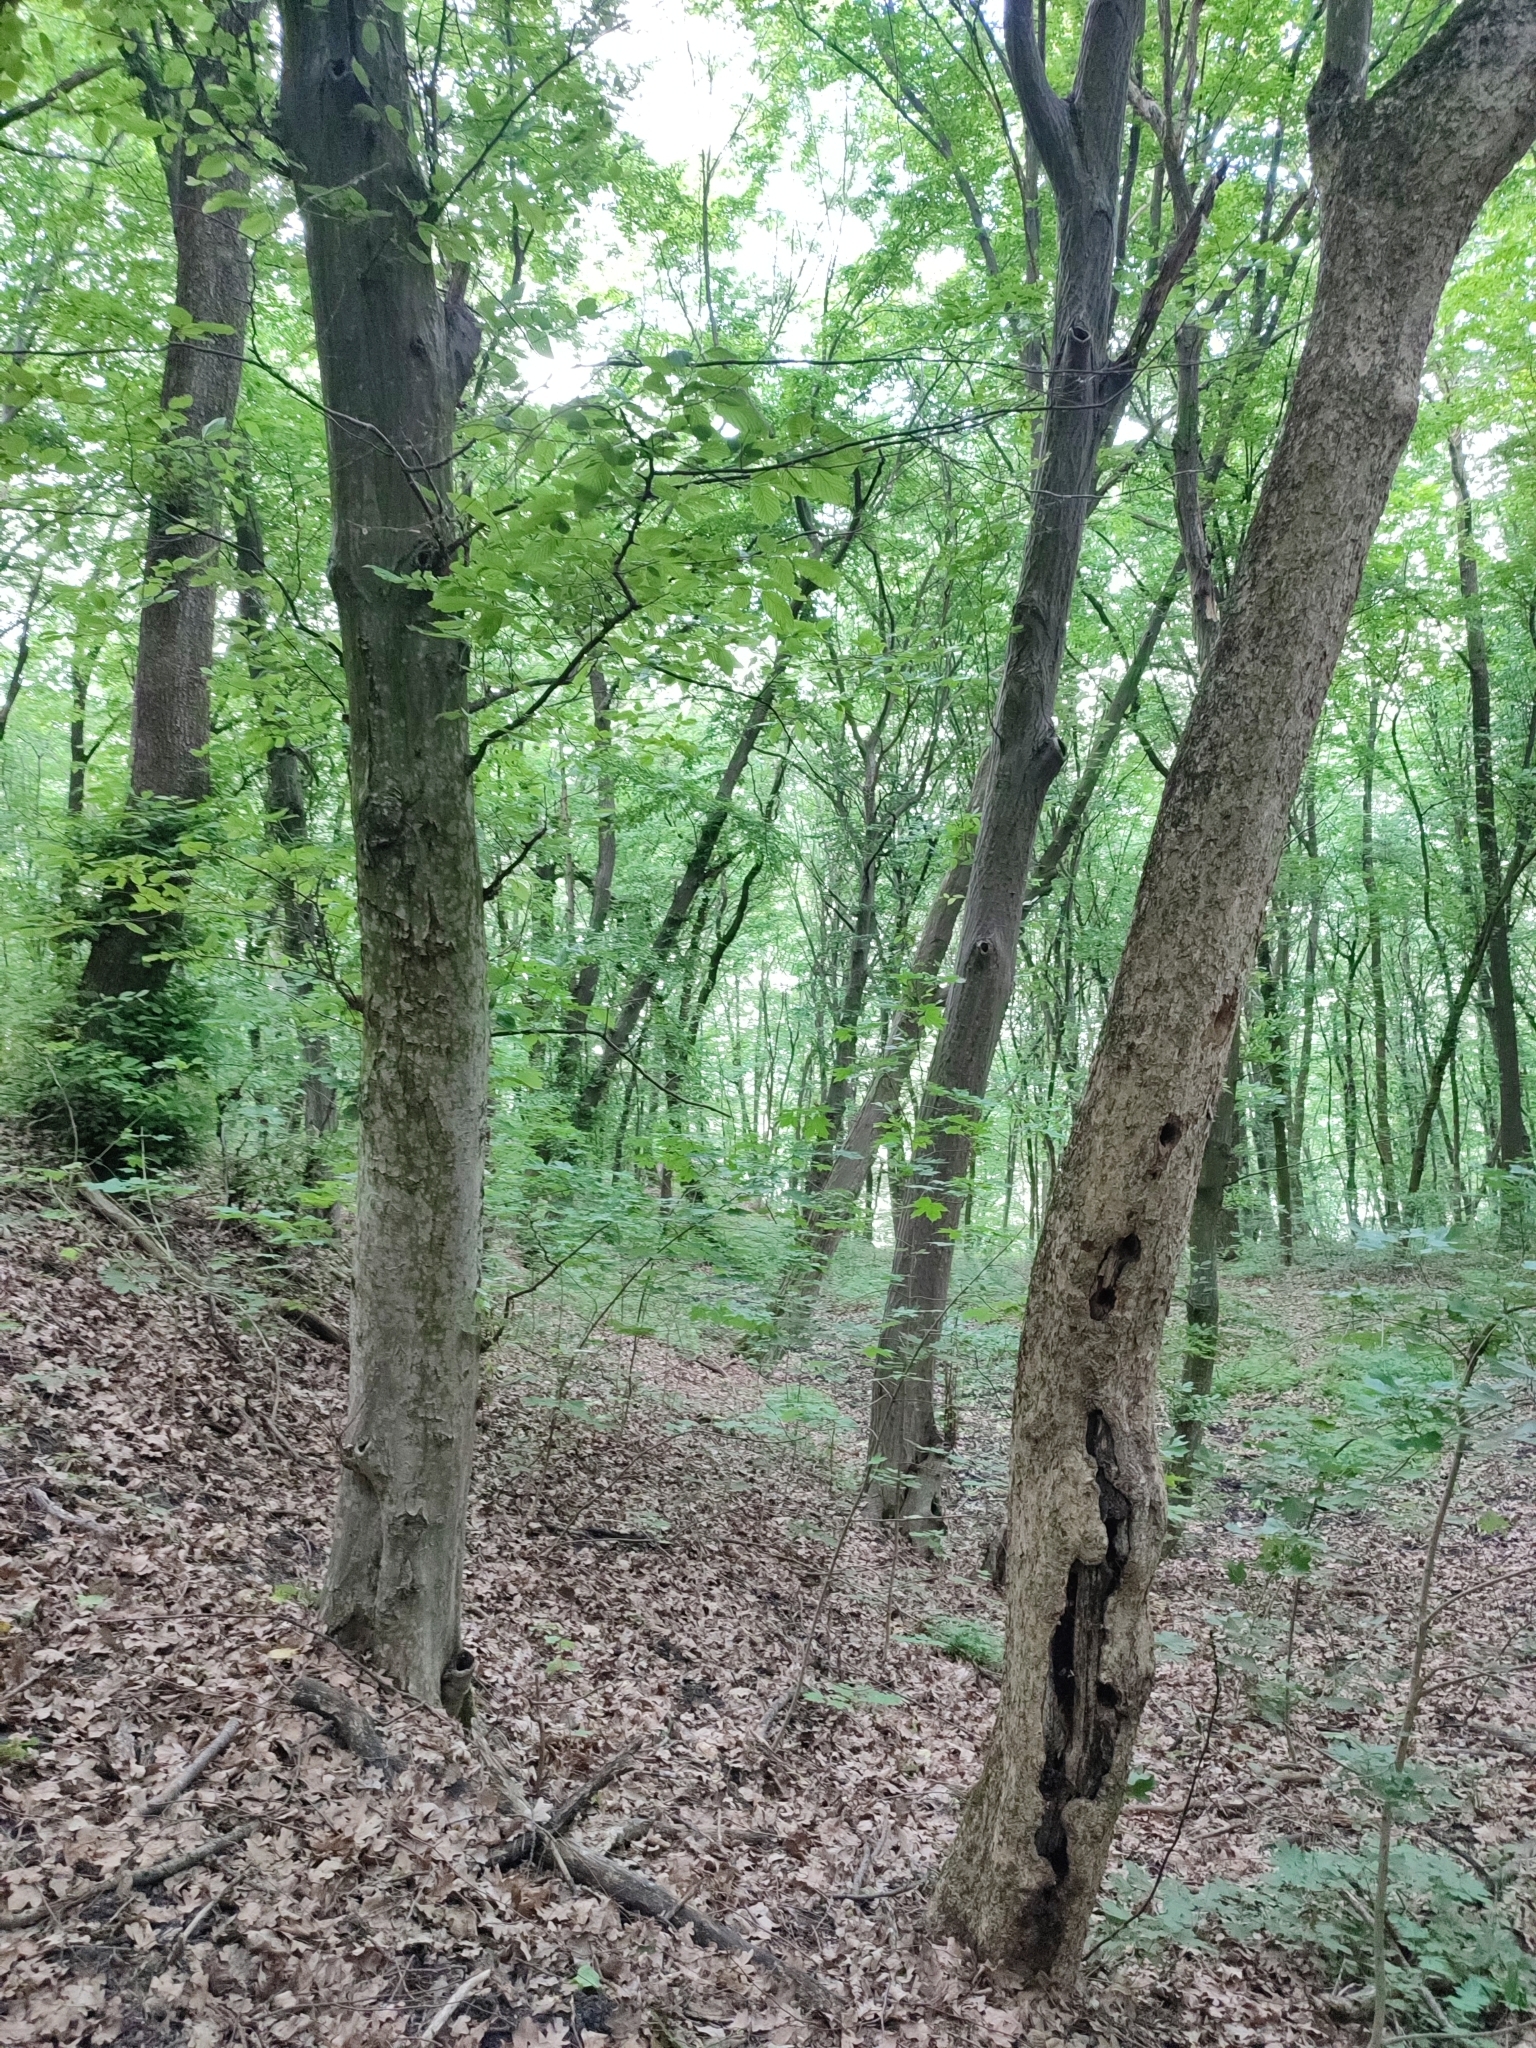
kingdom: Plantae
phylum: Tracheophyta
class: Magnoliopsida
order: Fagales
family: Betulaceae
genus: Carpinus
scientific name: Carpinus betulus
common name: Hornbeam
